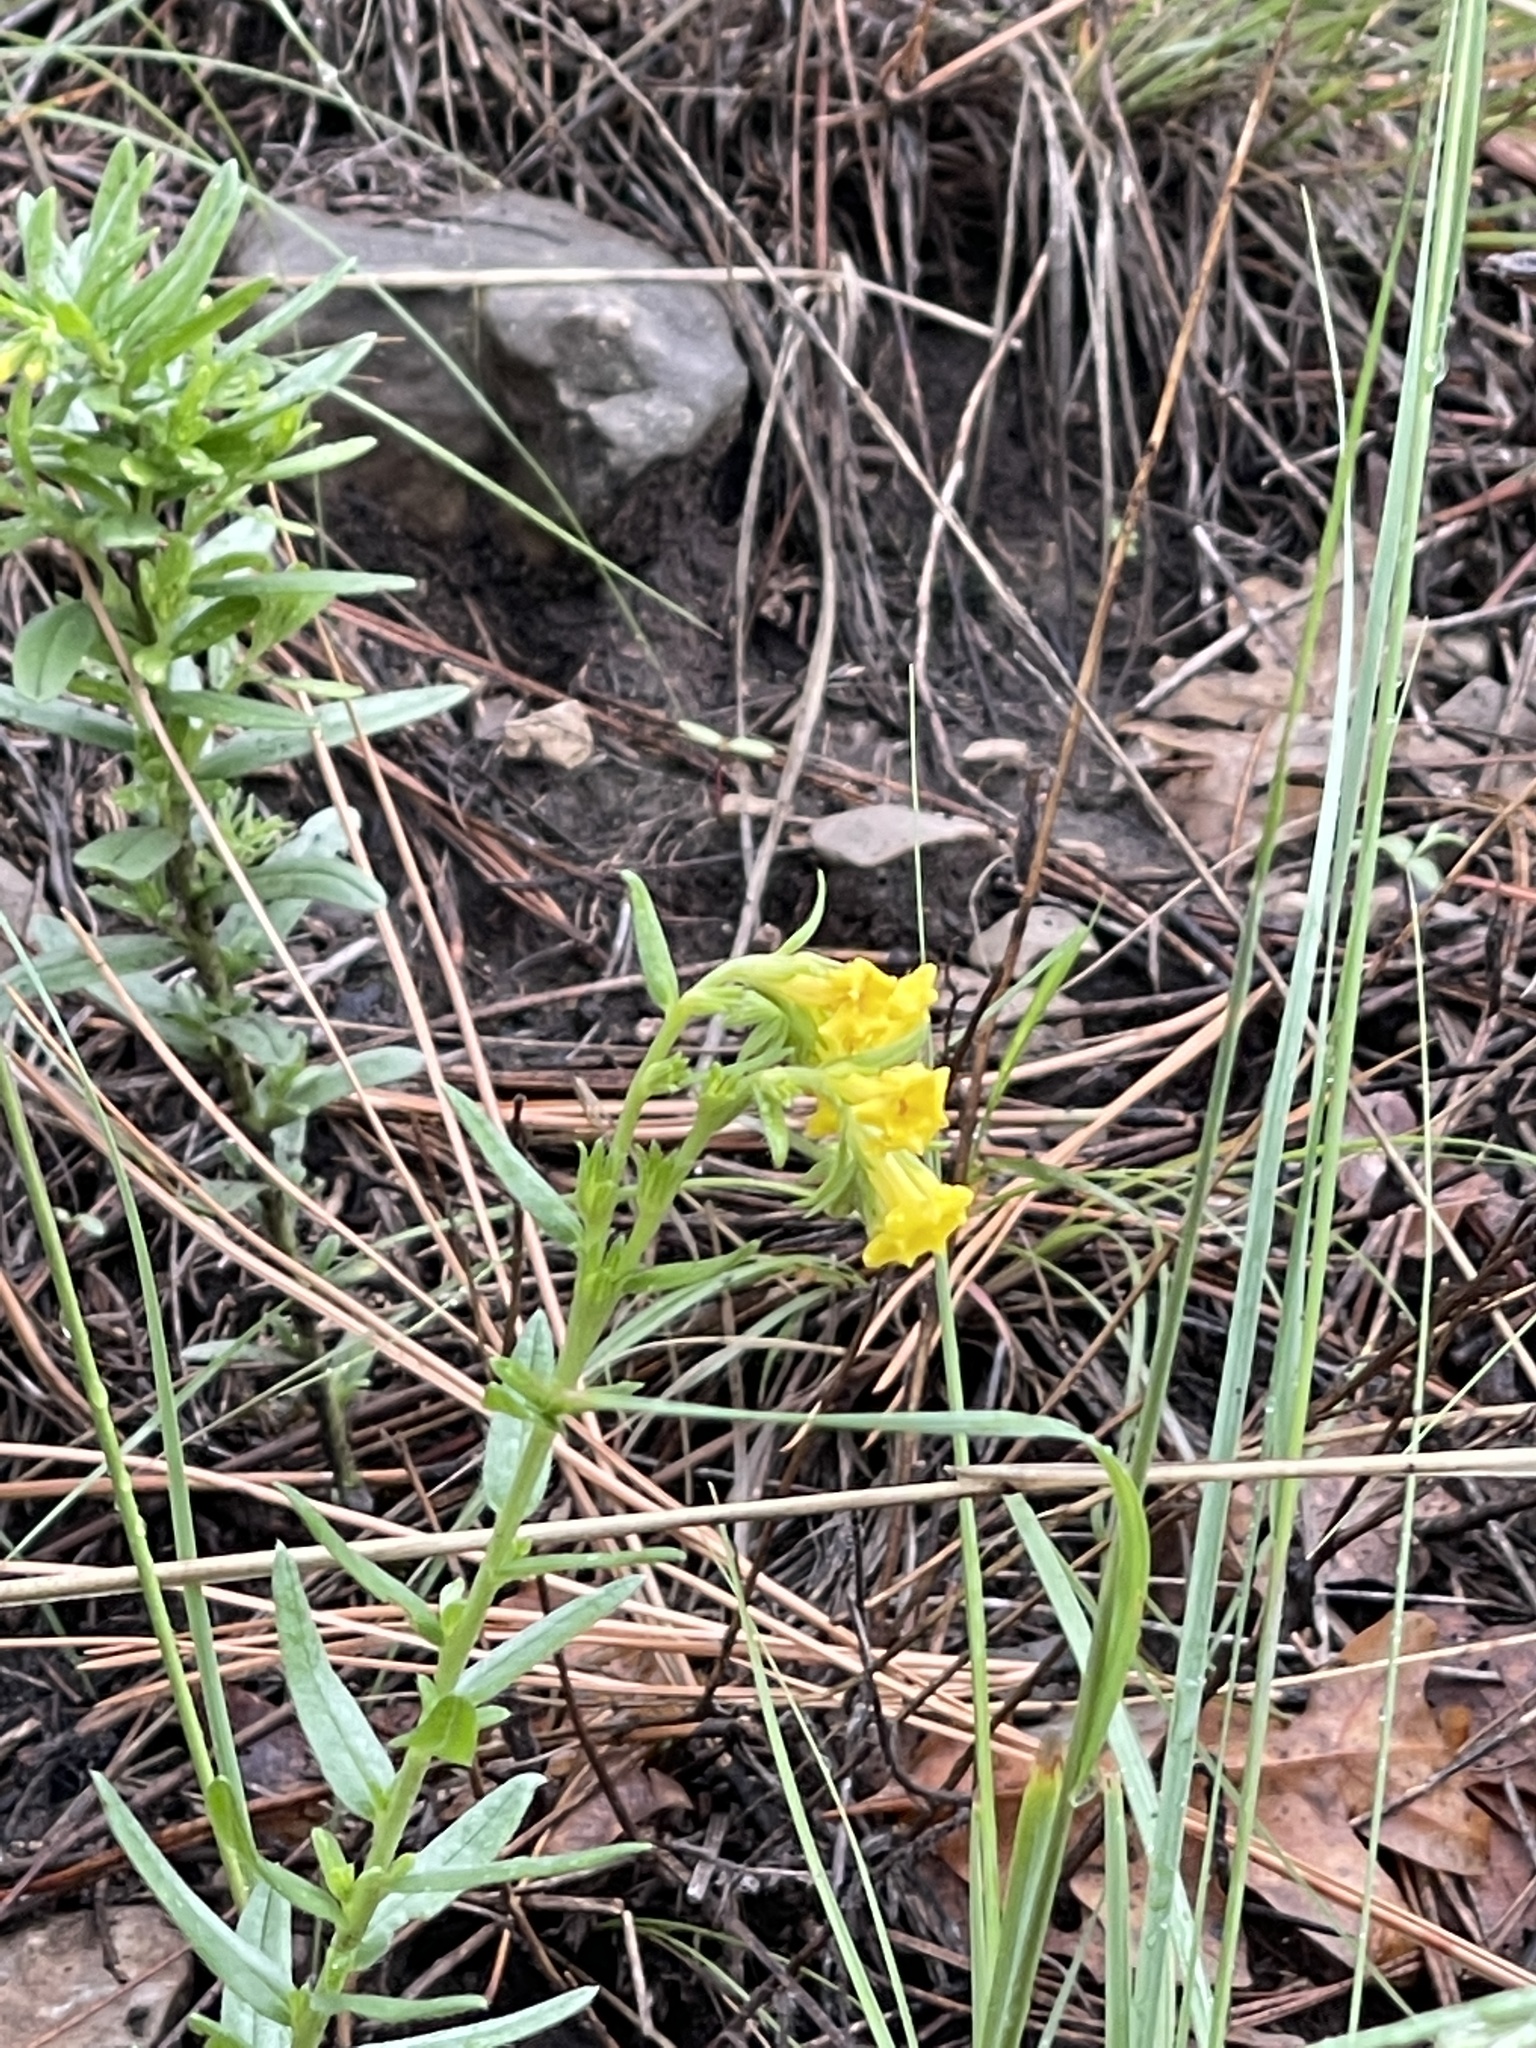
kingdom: Plantae
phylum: Tracheophyta
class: Magnoliopsida
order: Boraginales
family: Boraginaceae
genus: Lithospermum
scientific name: Lithospermum multiflorum
